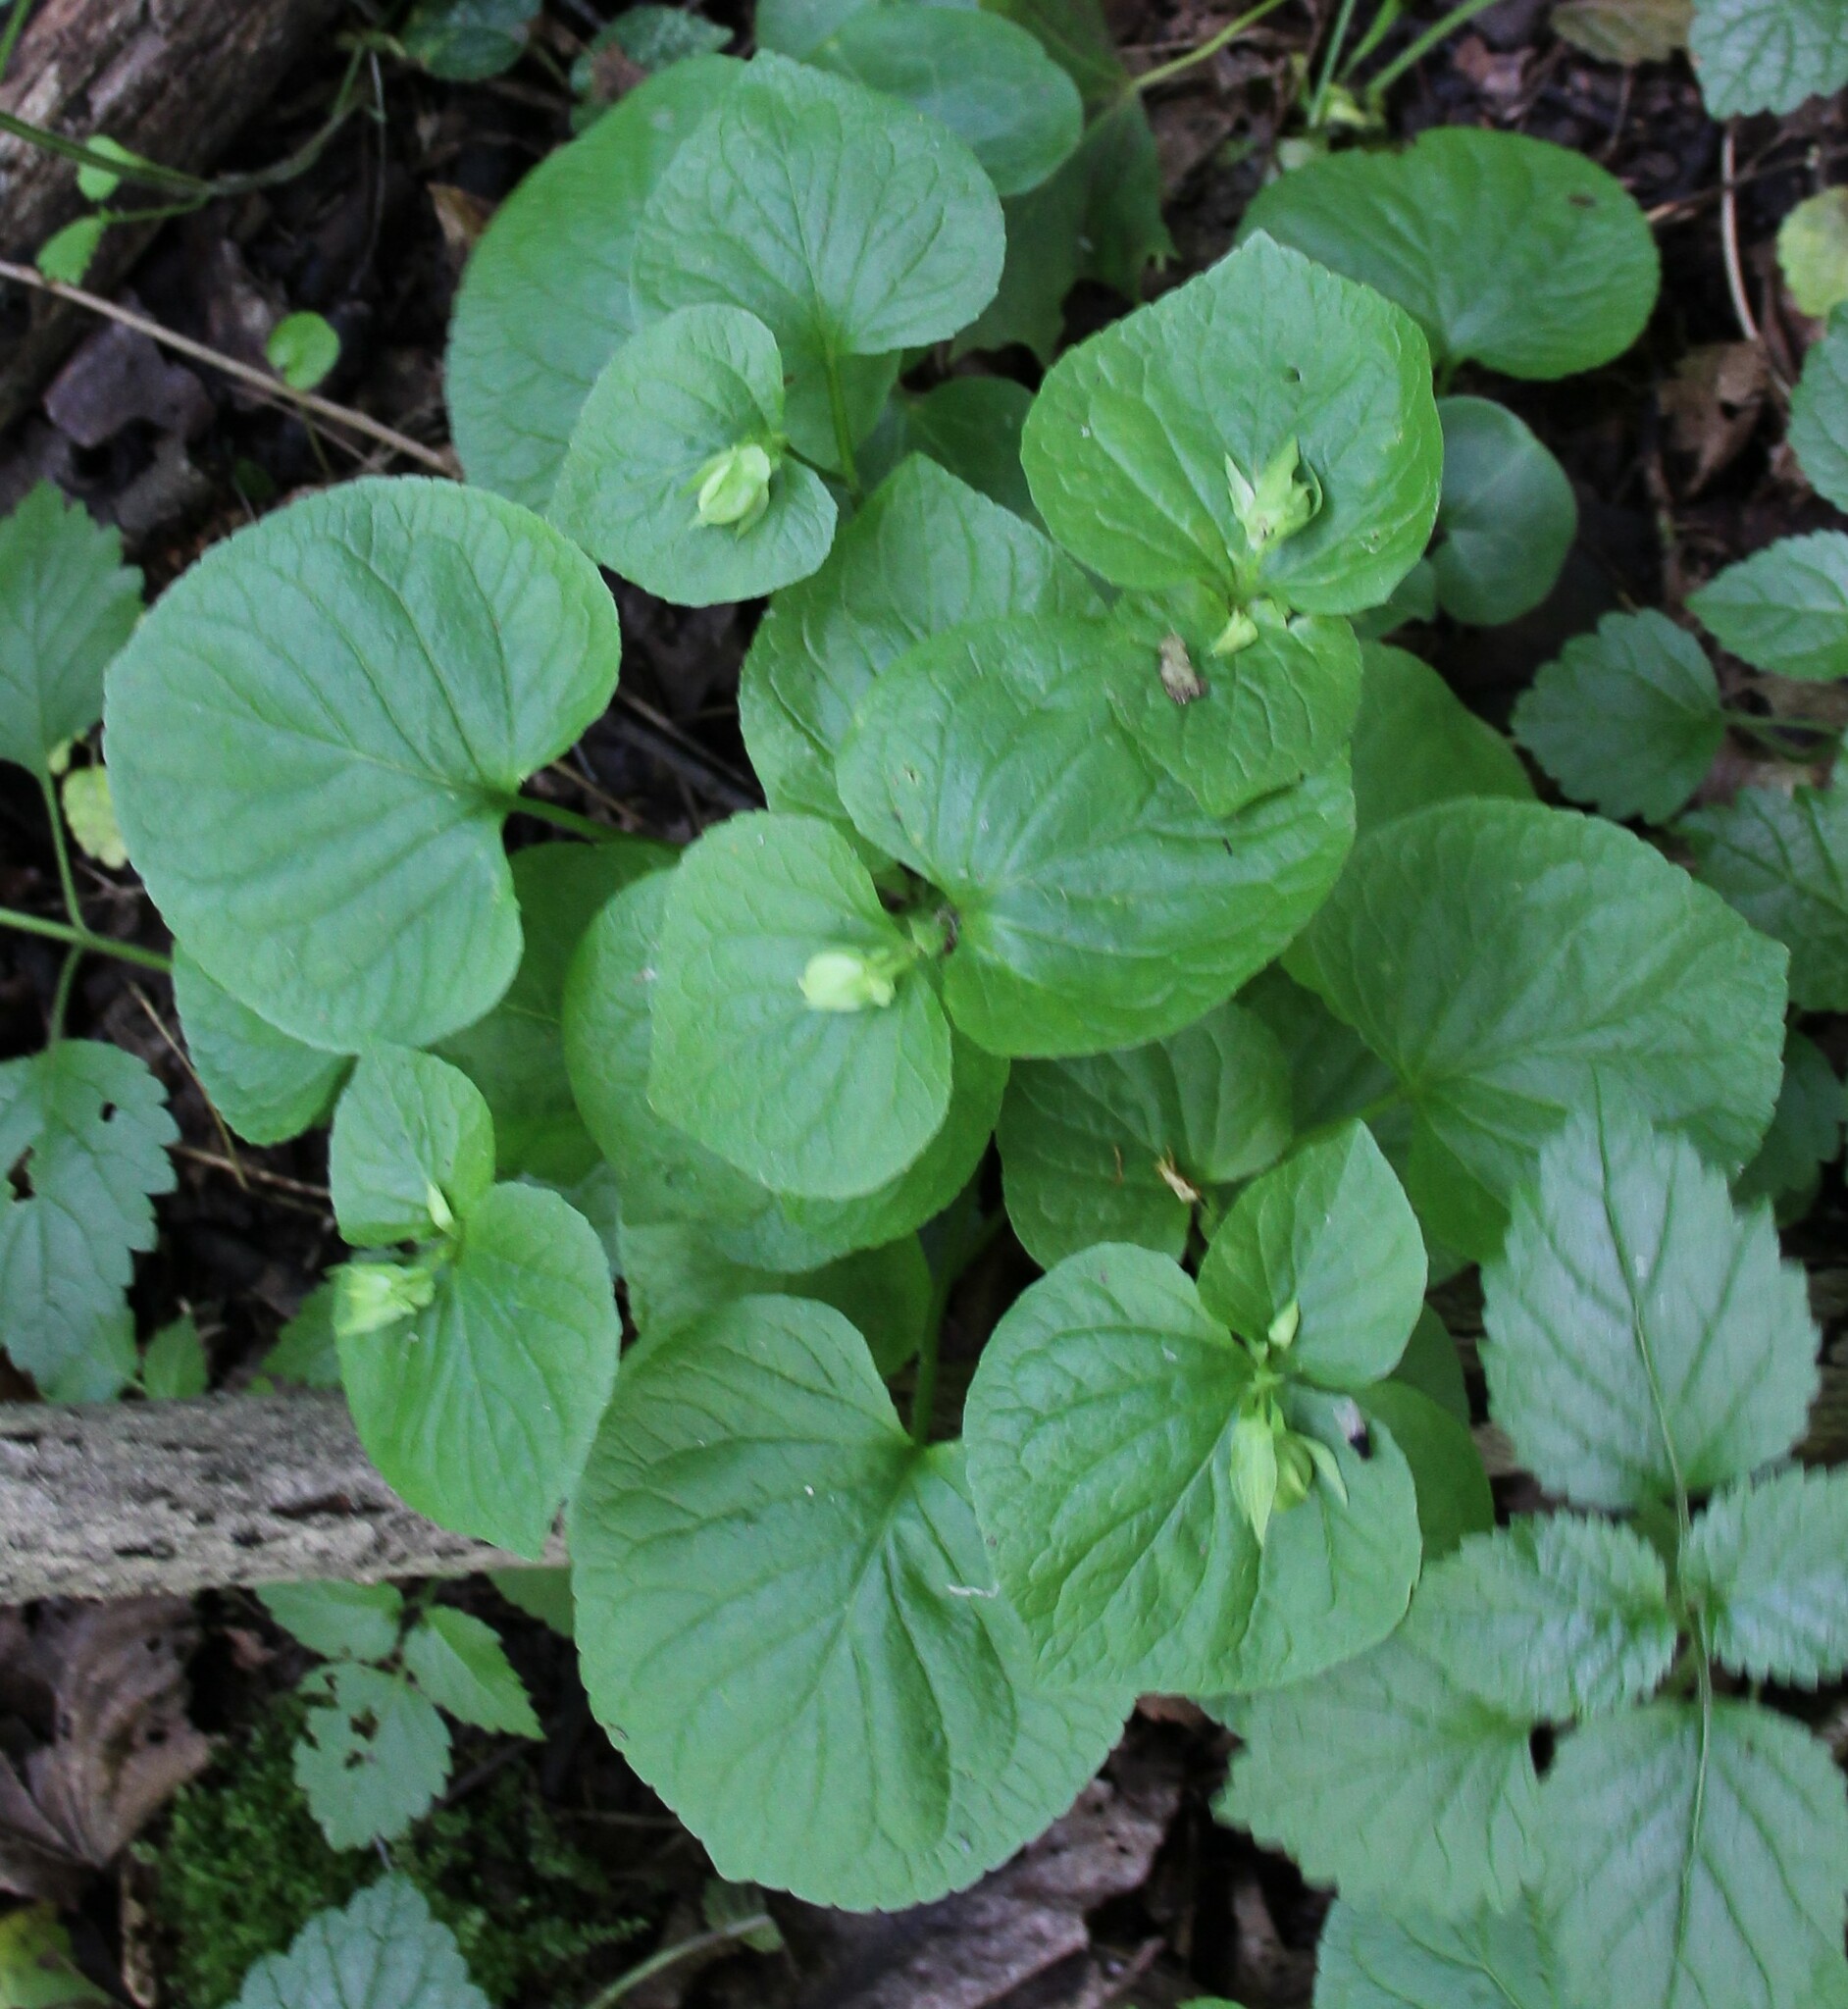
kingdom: Plantae
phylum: Tracheophyta
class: Magnoliopsida
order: Malpighiales
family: Violaceae
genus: Viola
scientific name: Viola mirabilis
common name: Wonder violet
